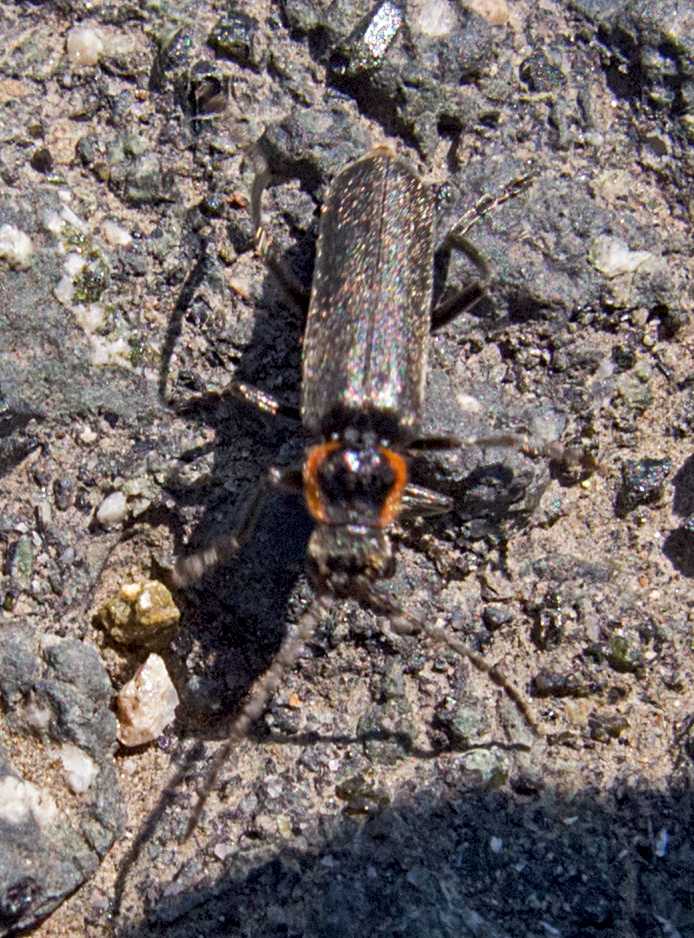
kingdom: Animalia
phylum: Arthropoda
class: Insecta
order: Coleoptera
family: Cantharidae
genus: Cantharis
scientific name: Cantharis pulicaria
